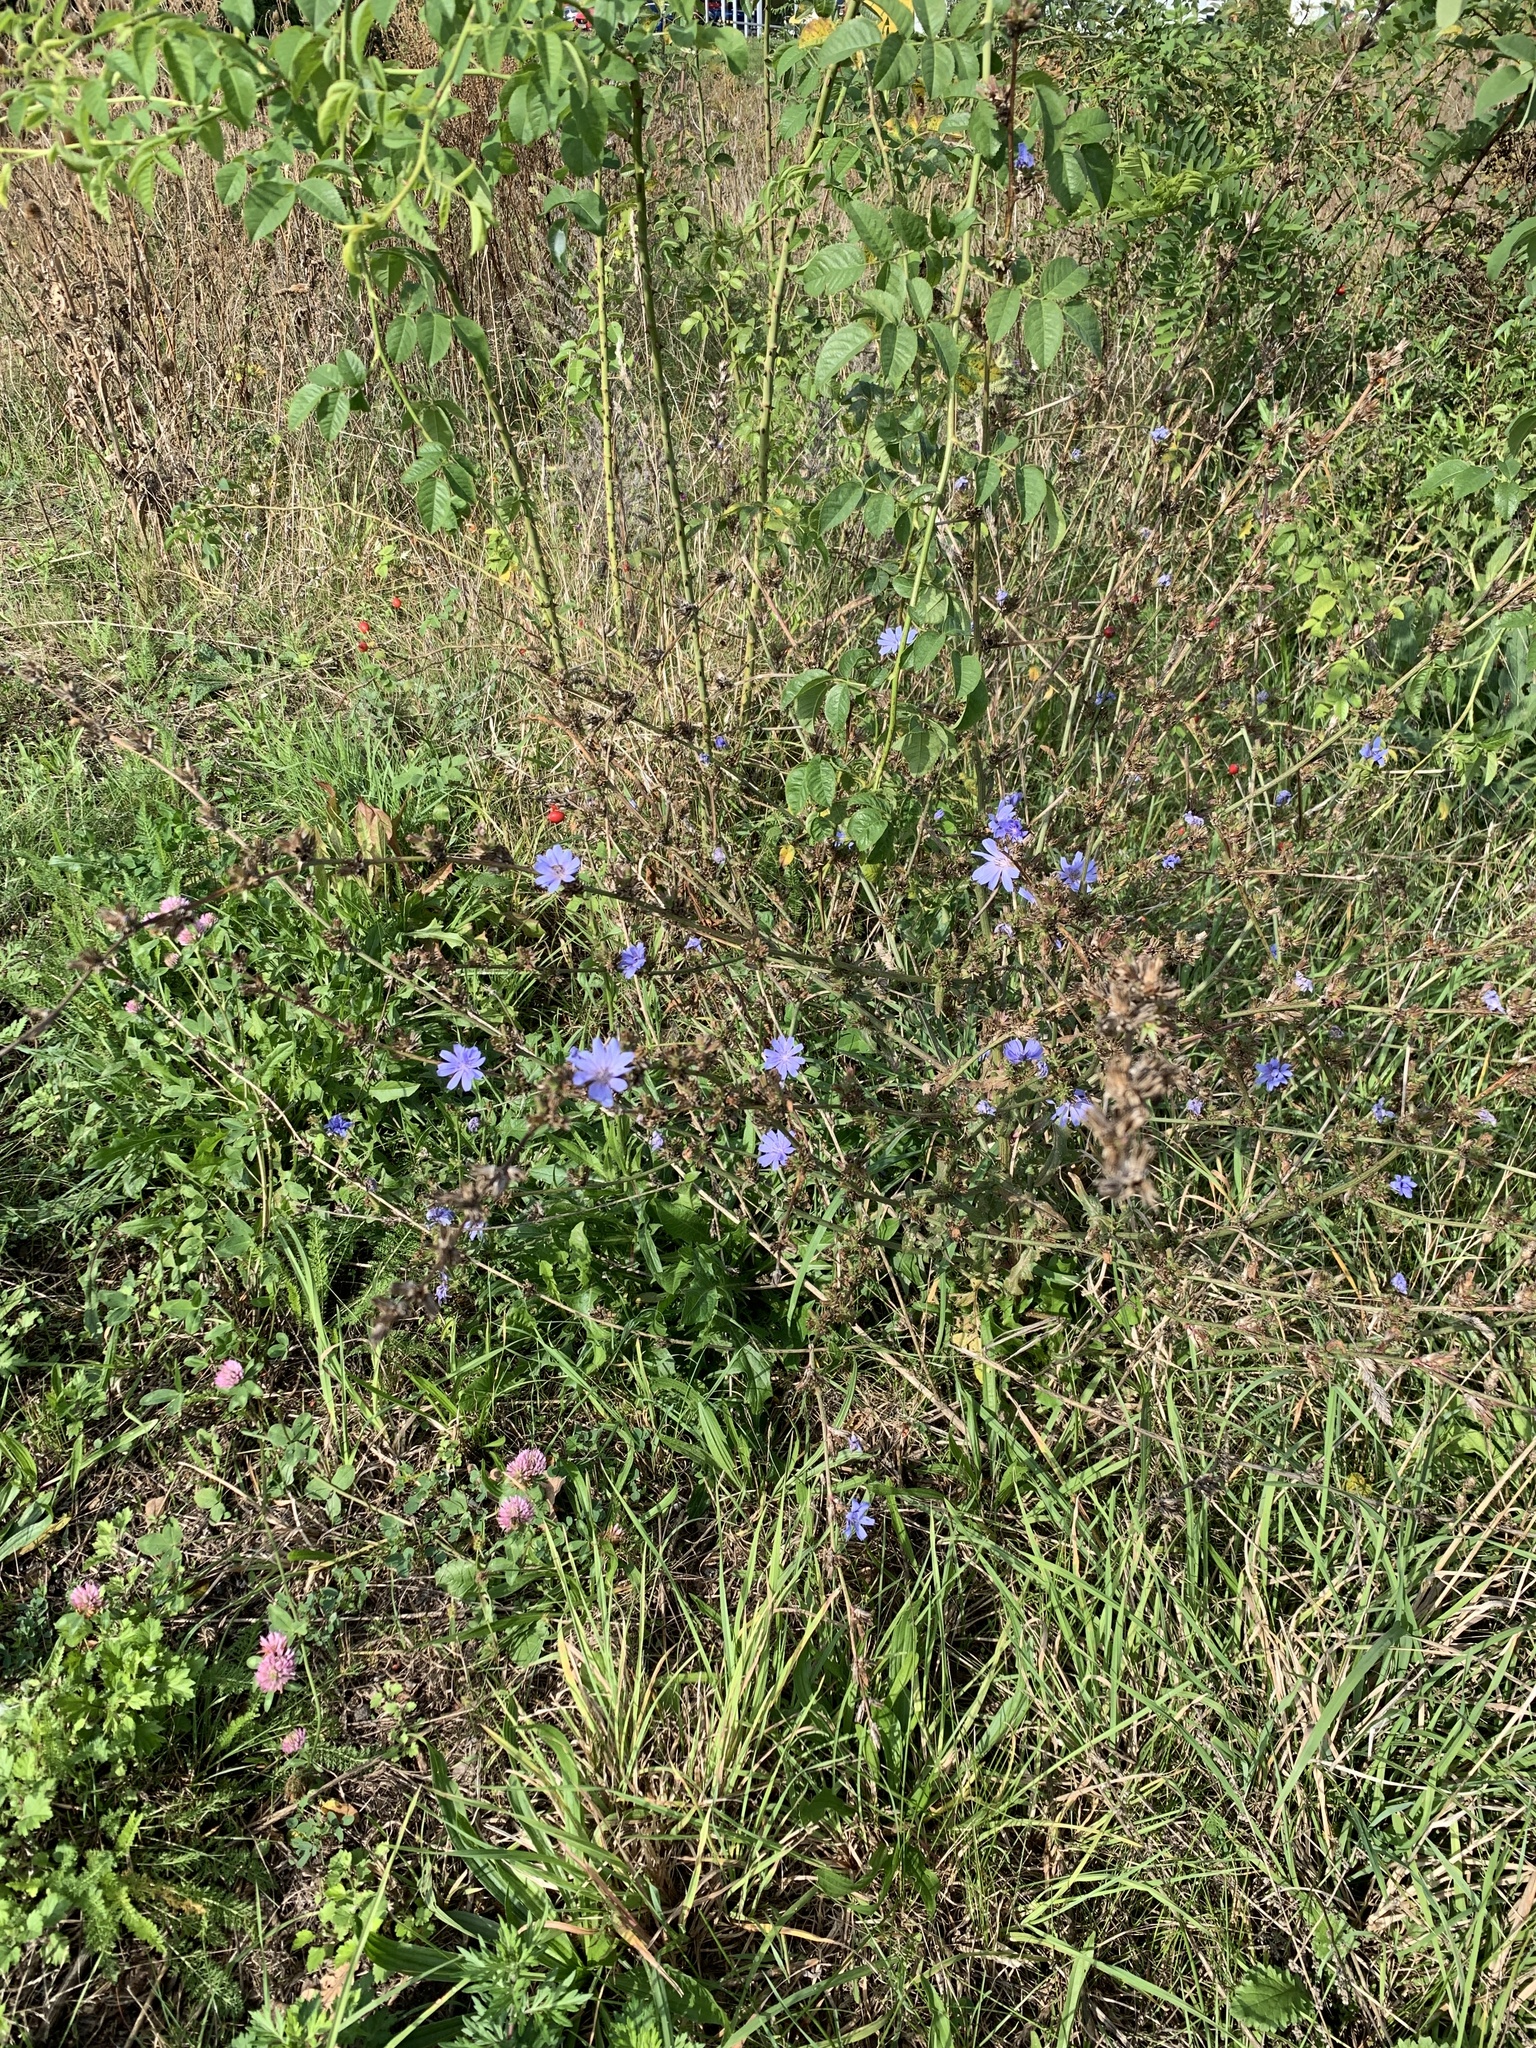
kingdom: Plantae
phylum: Tracheophyta
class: Magnoliopsida
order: Asterales
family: Asteraceae
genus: Cichorium
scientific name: Cichorium intybus
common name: Chicory
